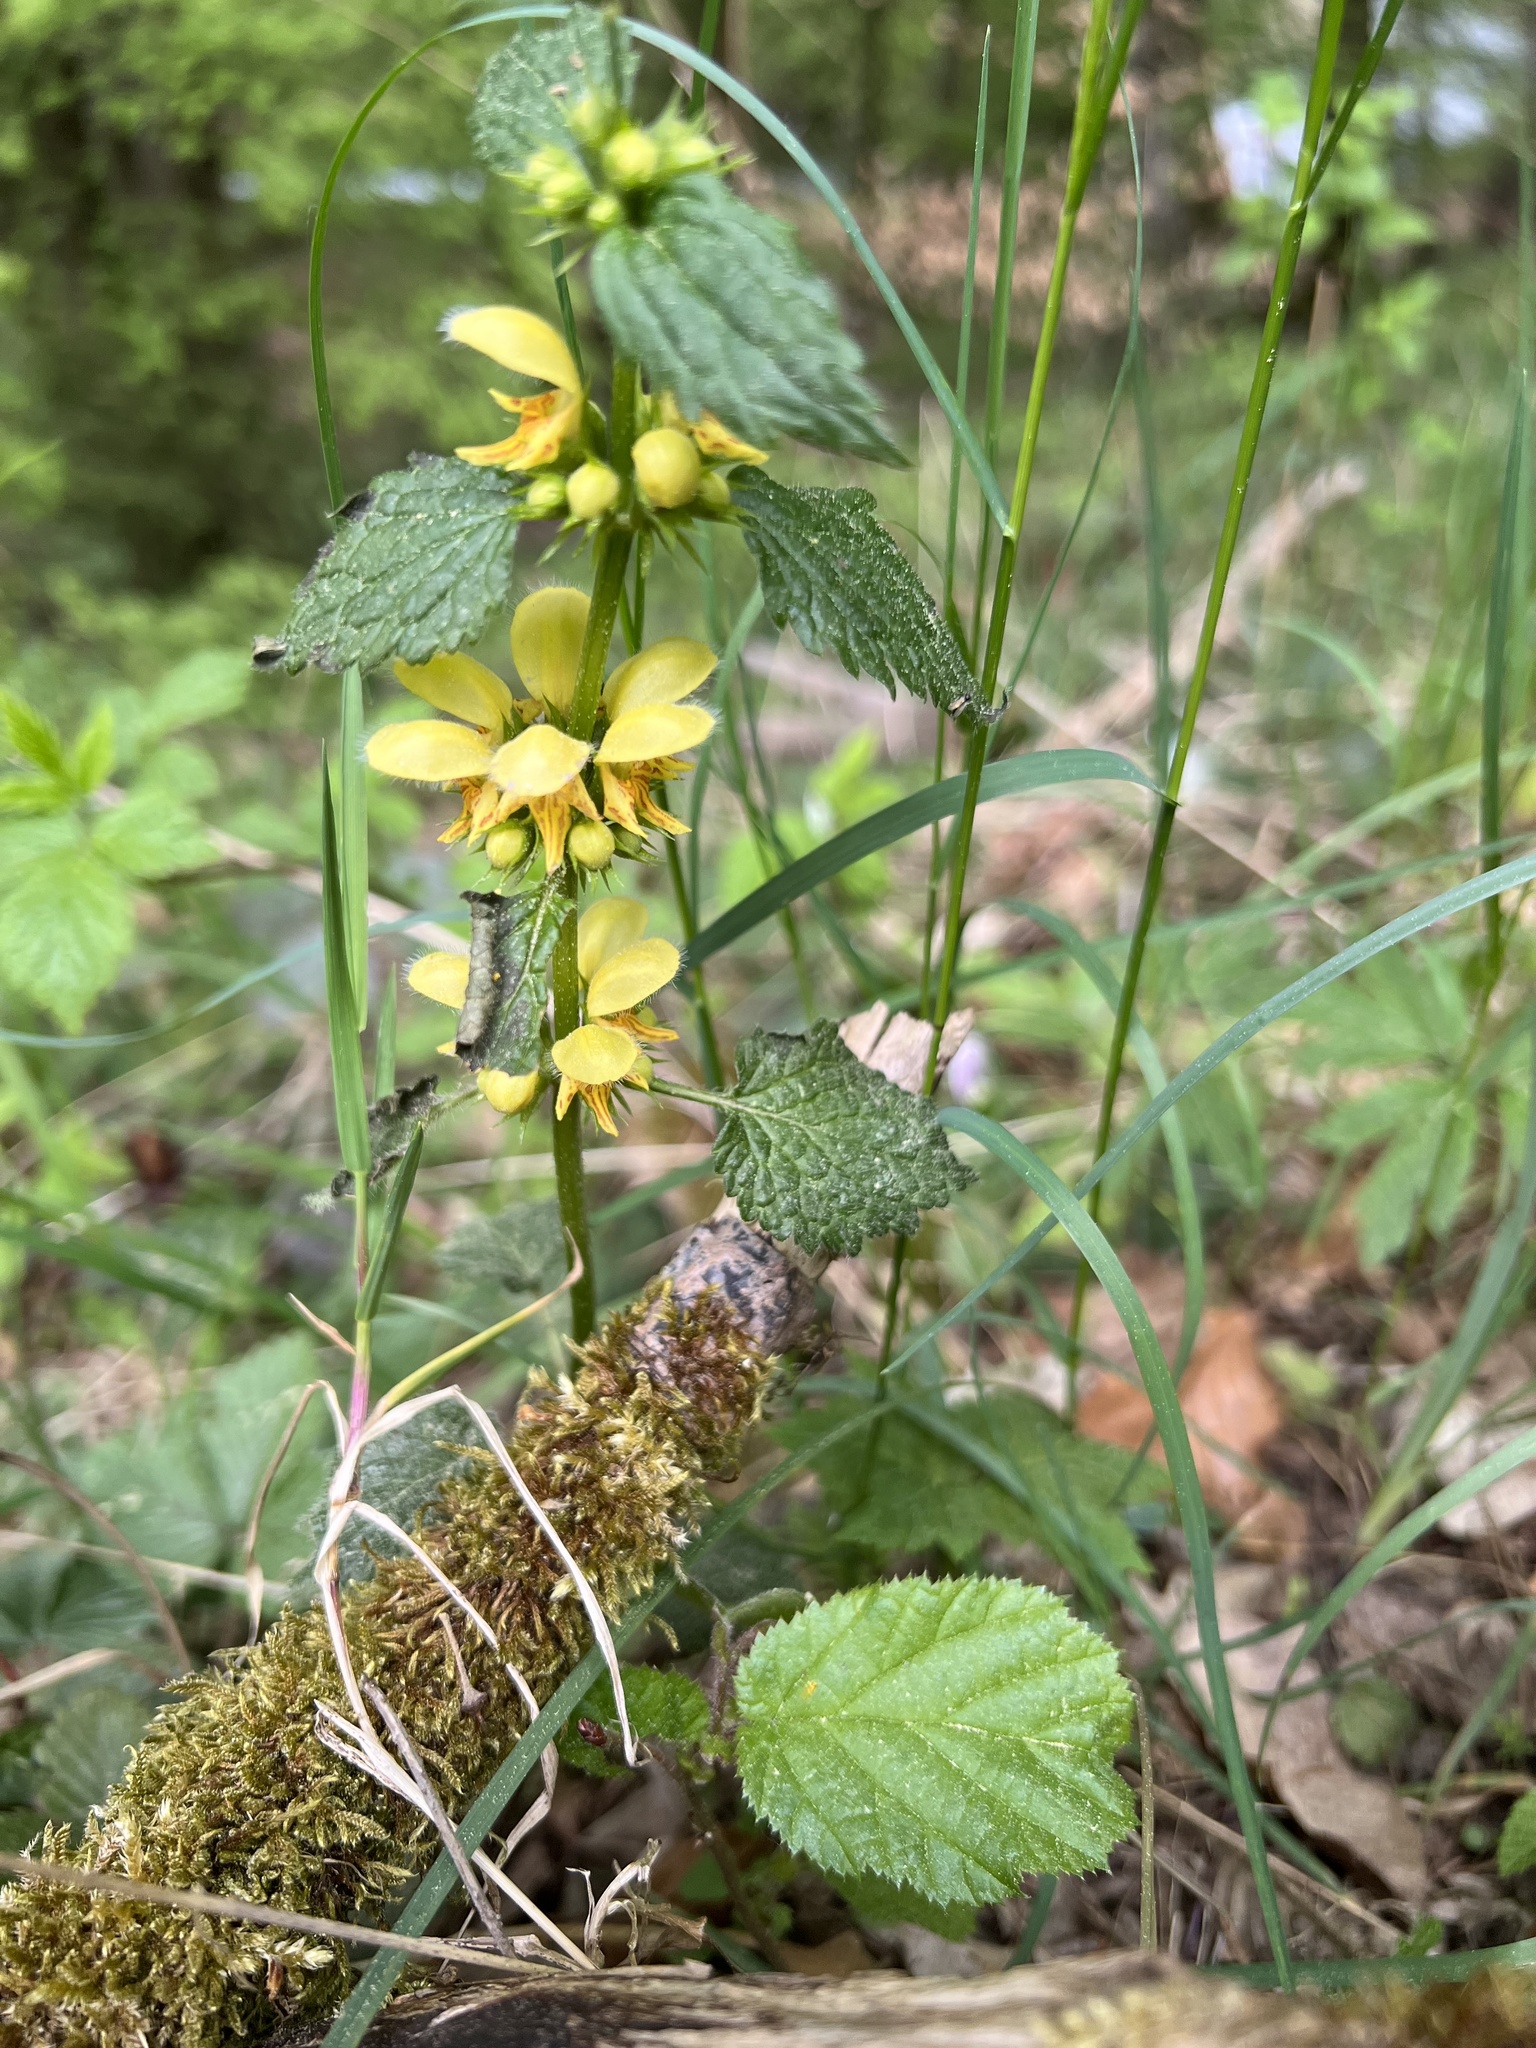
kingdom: Plantae
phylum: Tracheophyta
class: Magnoliopsida
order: Lamiales
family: Lamiaceae
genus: Lamium
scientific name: Lamium galeobdolon
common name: Yellow archangel
